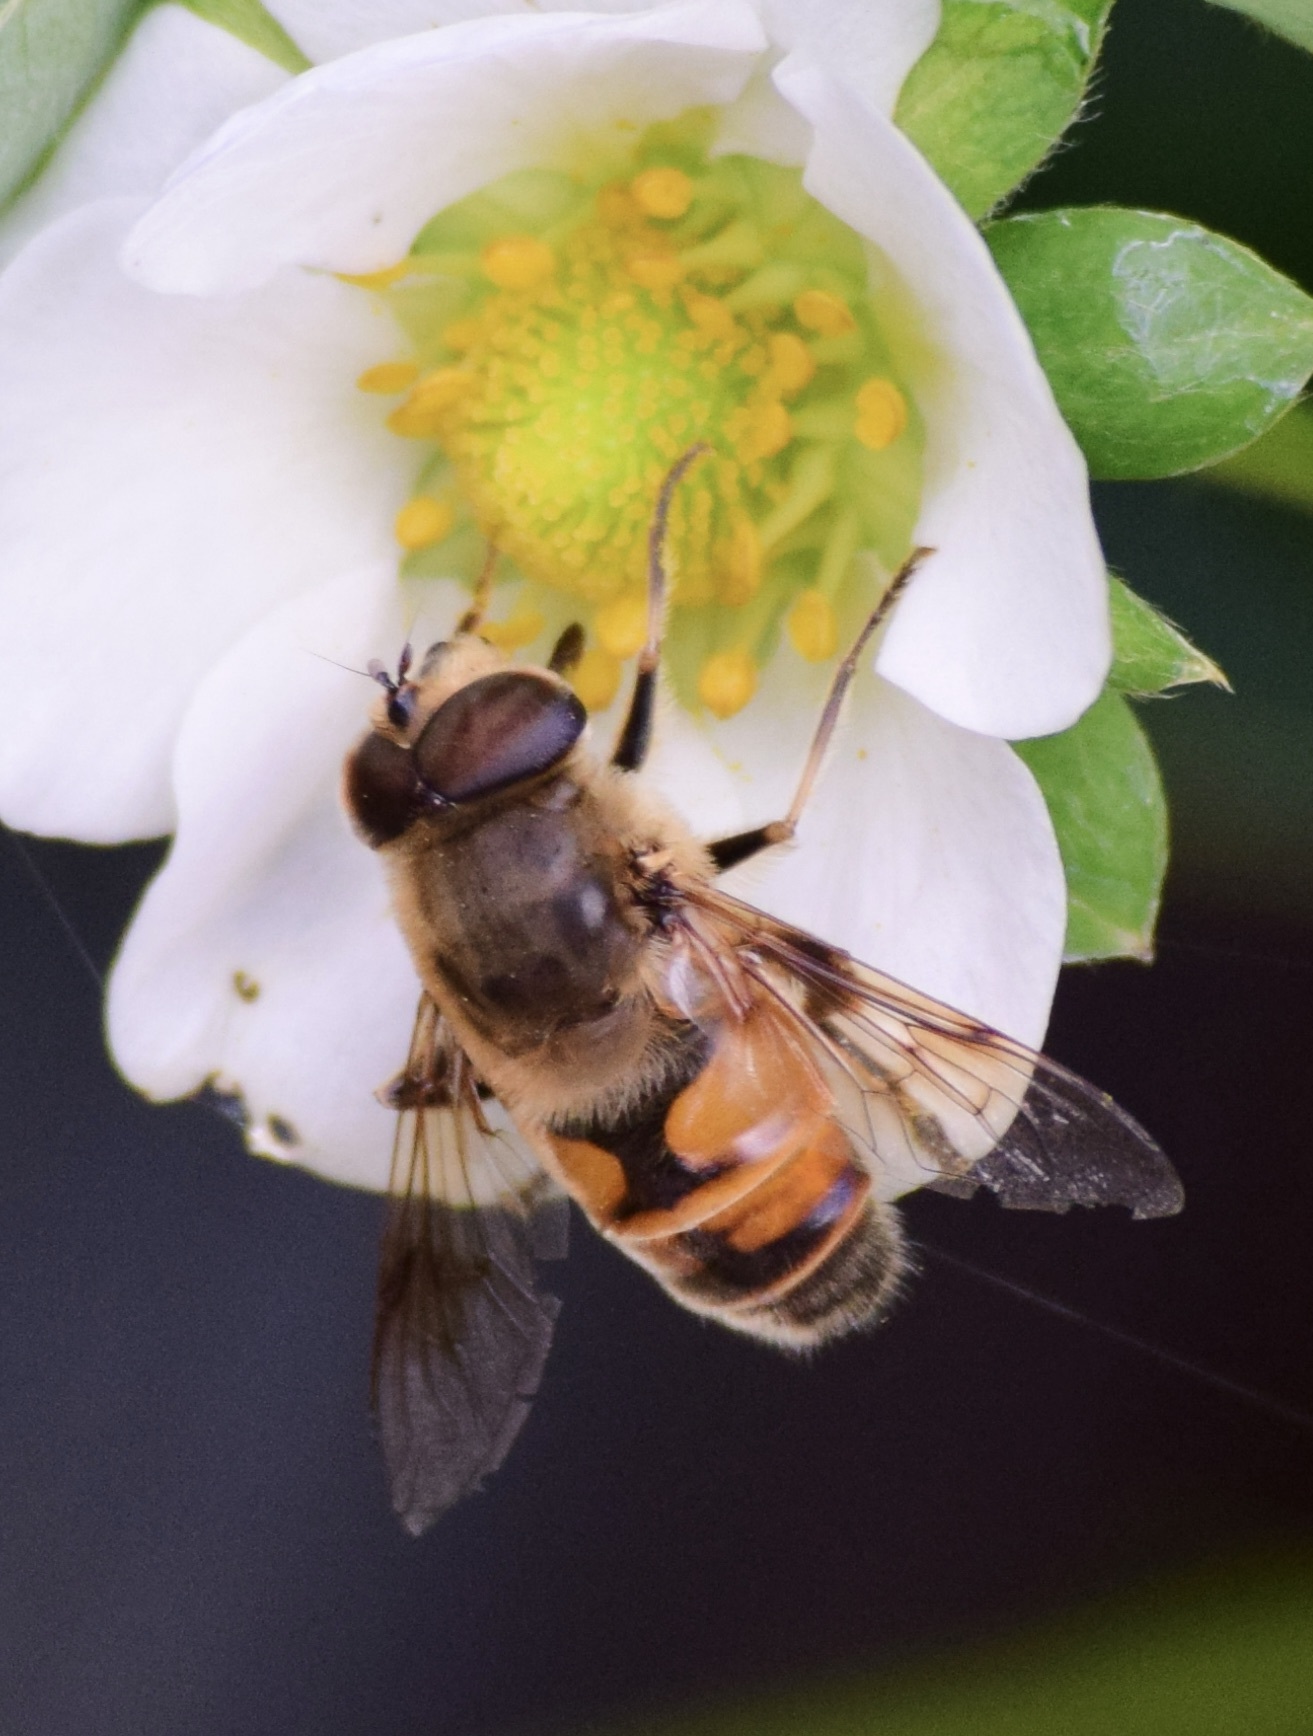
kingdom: Animalia
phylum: Arthropoda
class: Insecta
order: Diptera
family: Syrphidae
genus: Eristalis
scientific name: Eristalis tenax
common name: Drone fly
